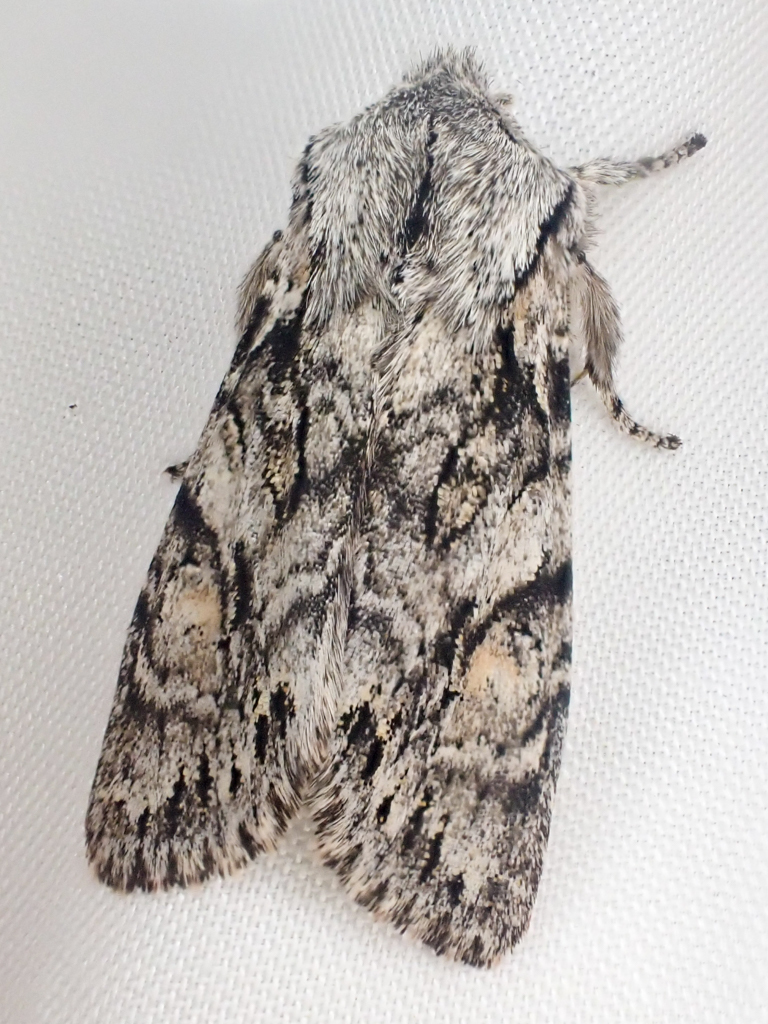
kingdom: Animalia
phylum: Arthropoda
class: Insecta
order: Lepidoptera
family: Noctuidae
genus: Egira
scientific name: Egira simplex
